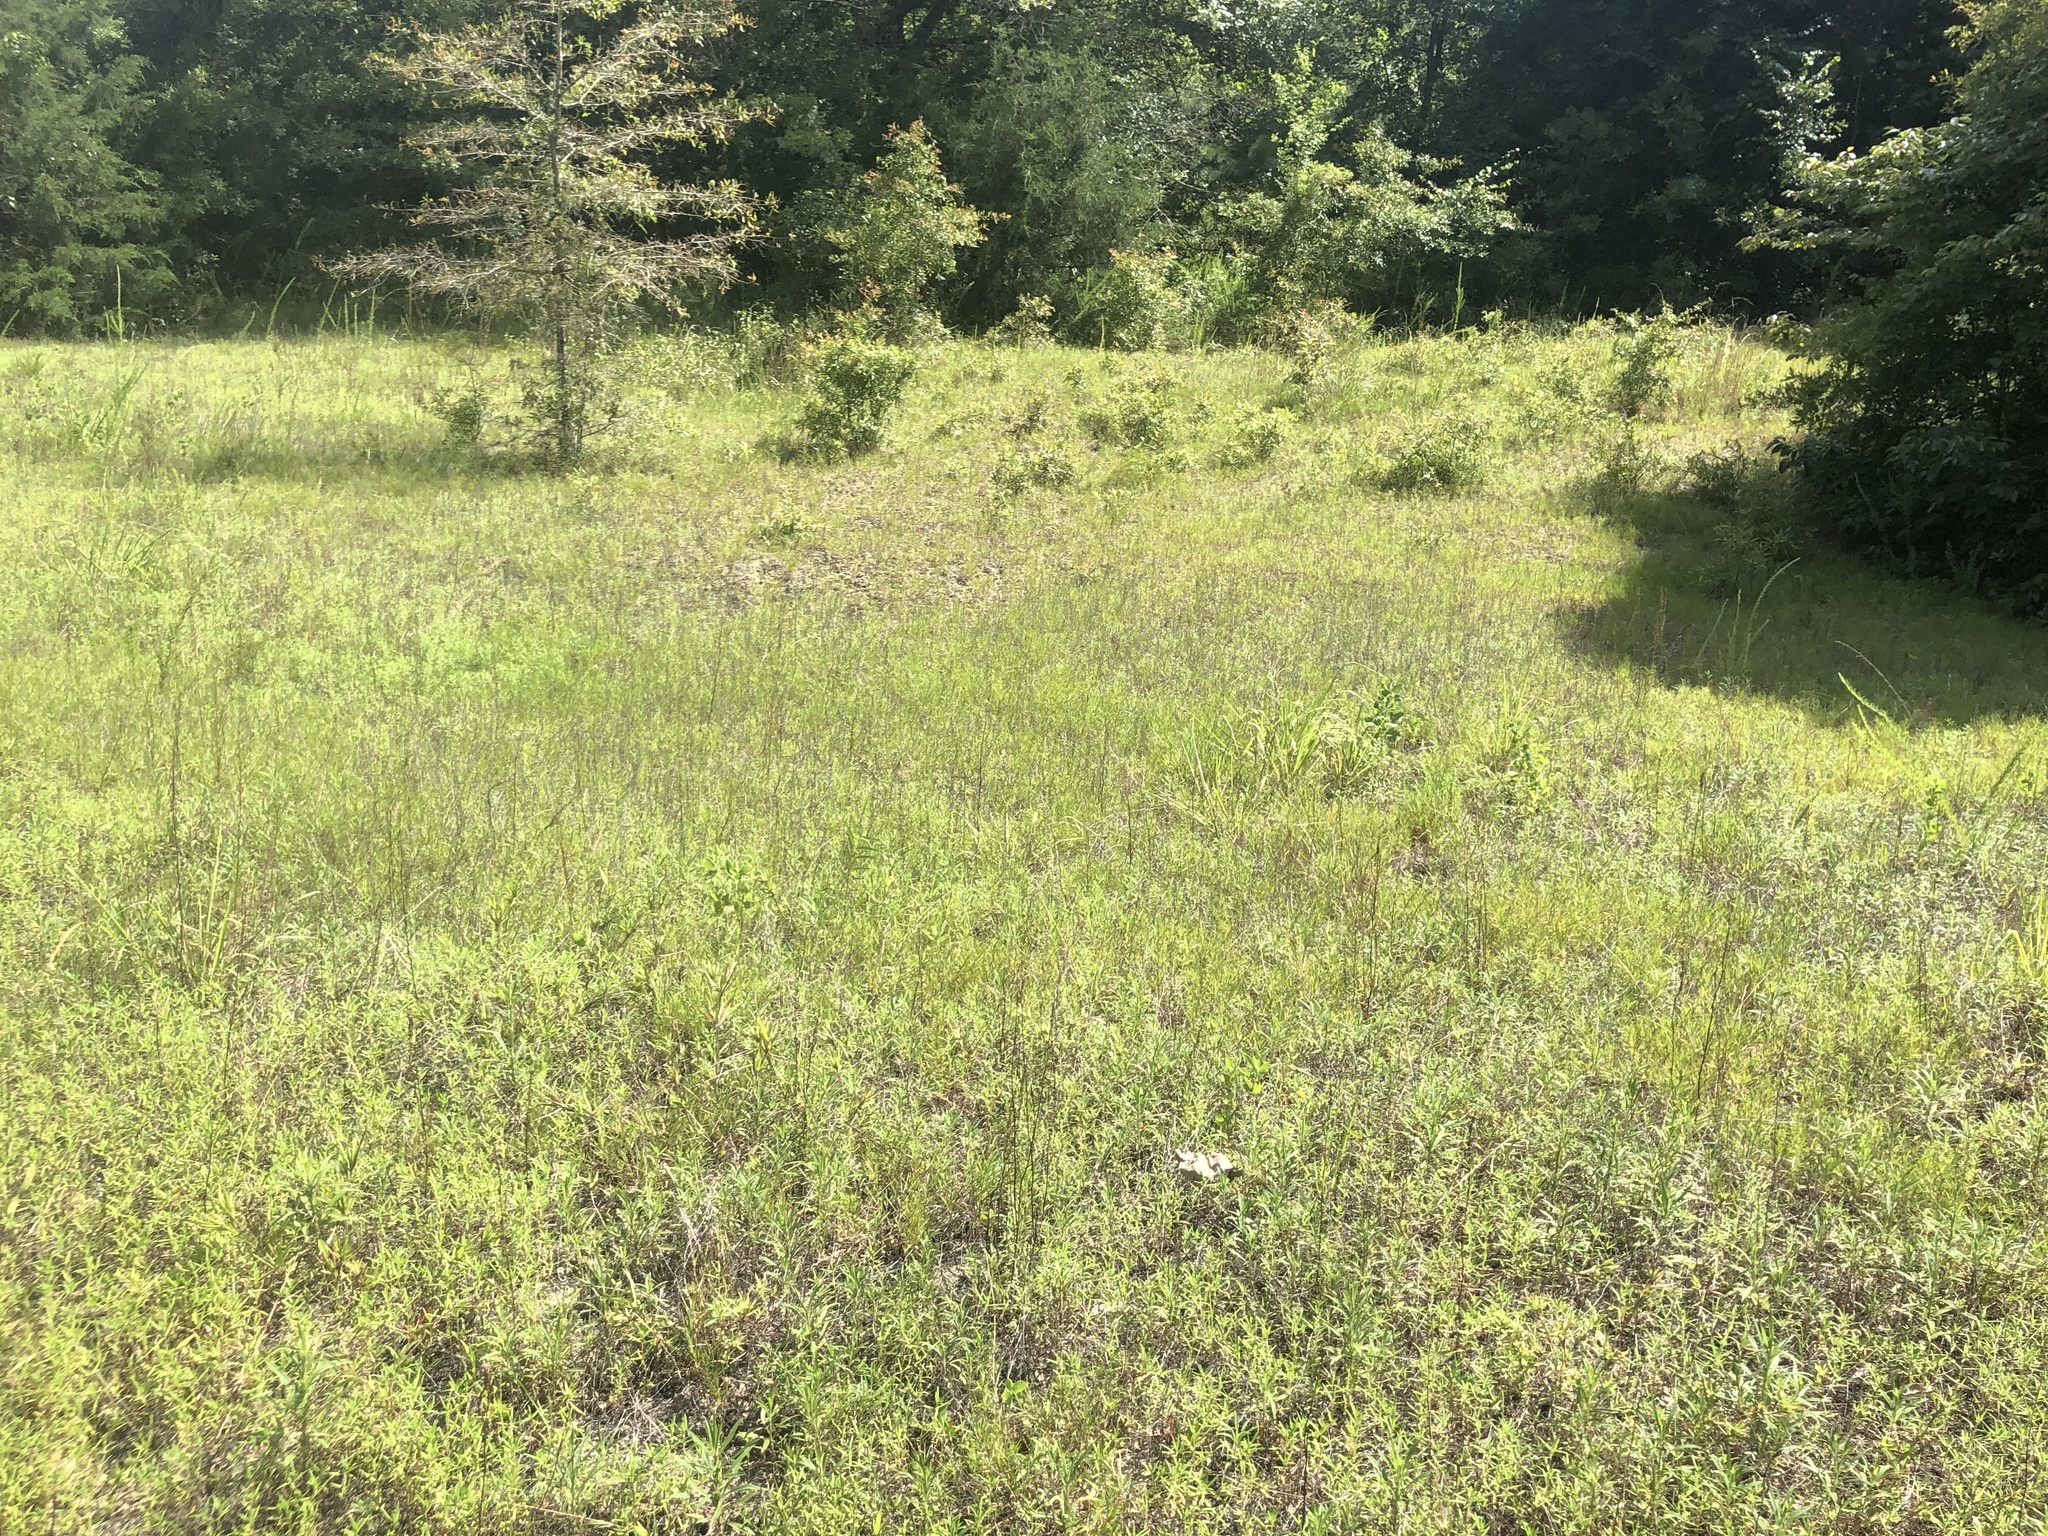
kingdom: Plantae
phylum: Tracheophyta
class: Magnoliopsida
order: Gentianales
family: Rubiaceae
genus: Hexasepalum
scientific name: Hexasepalum teres
